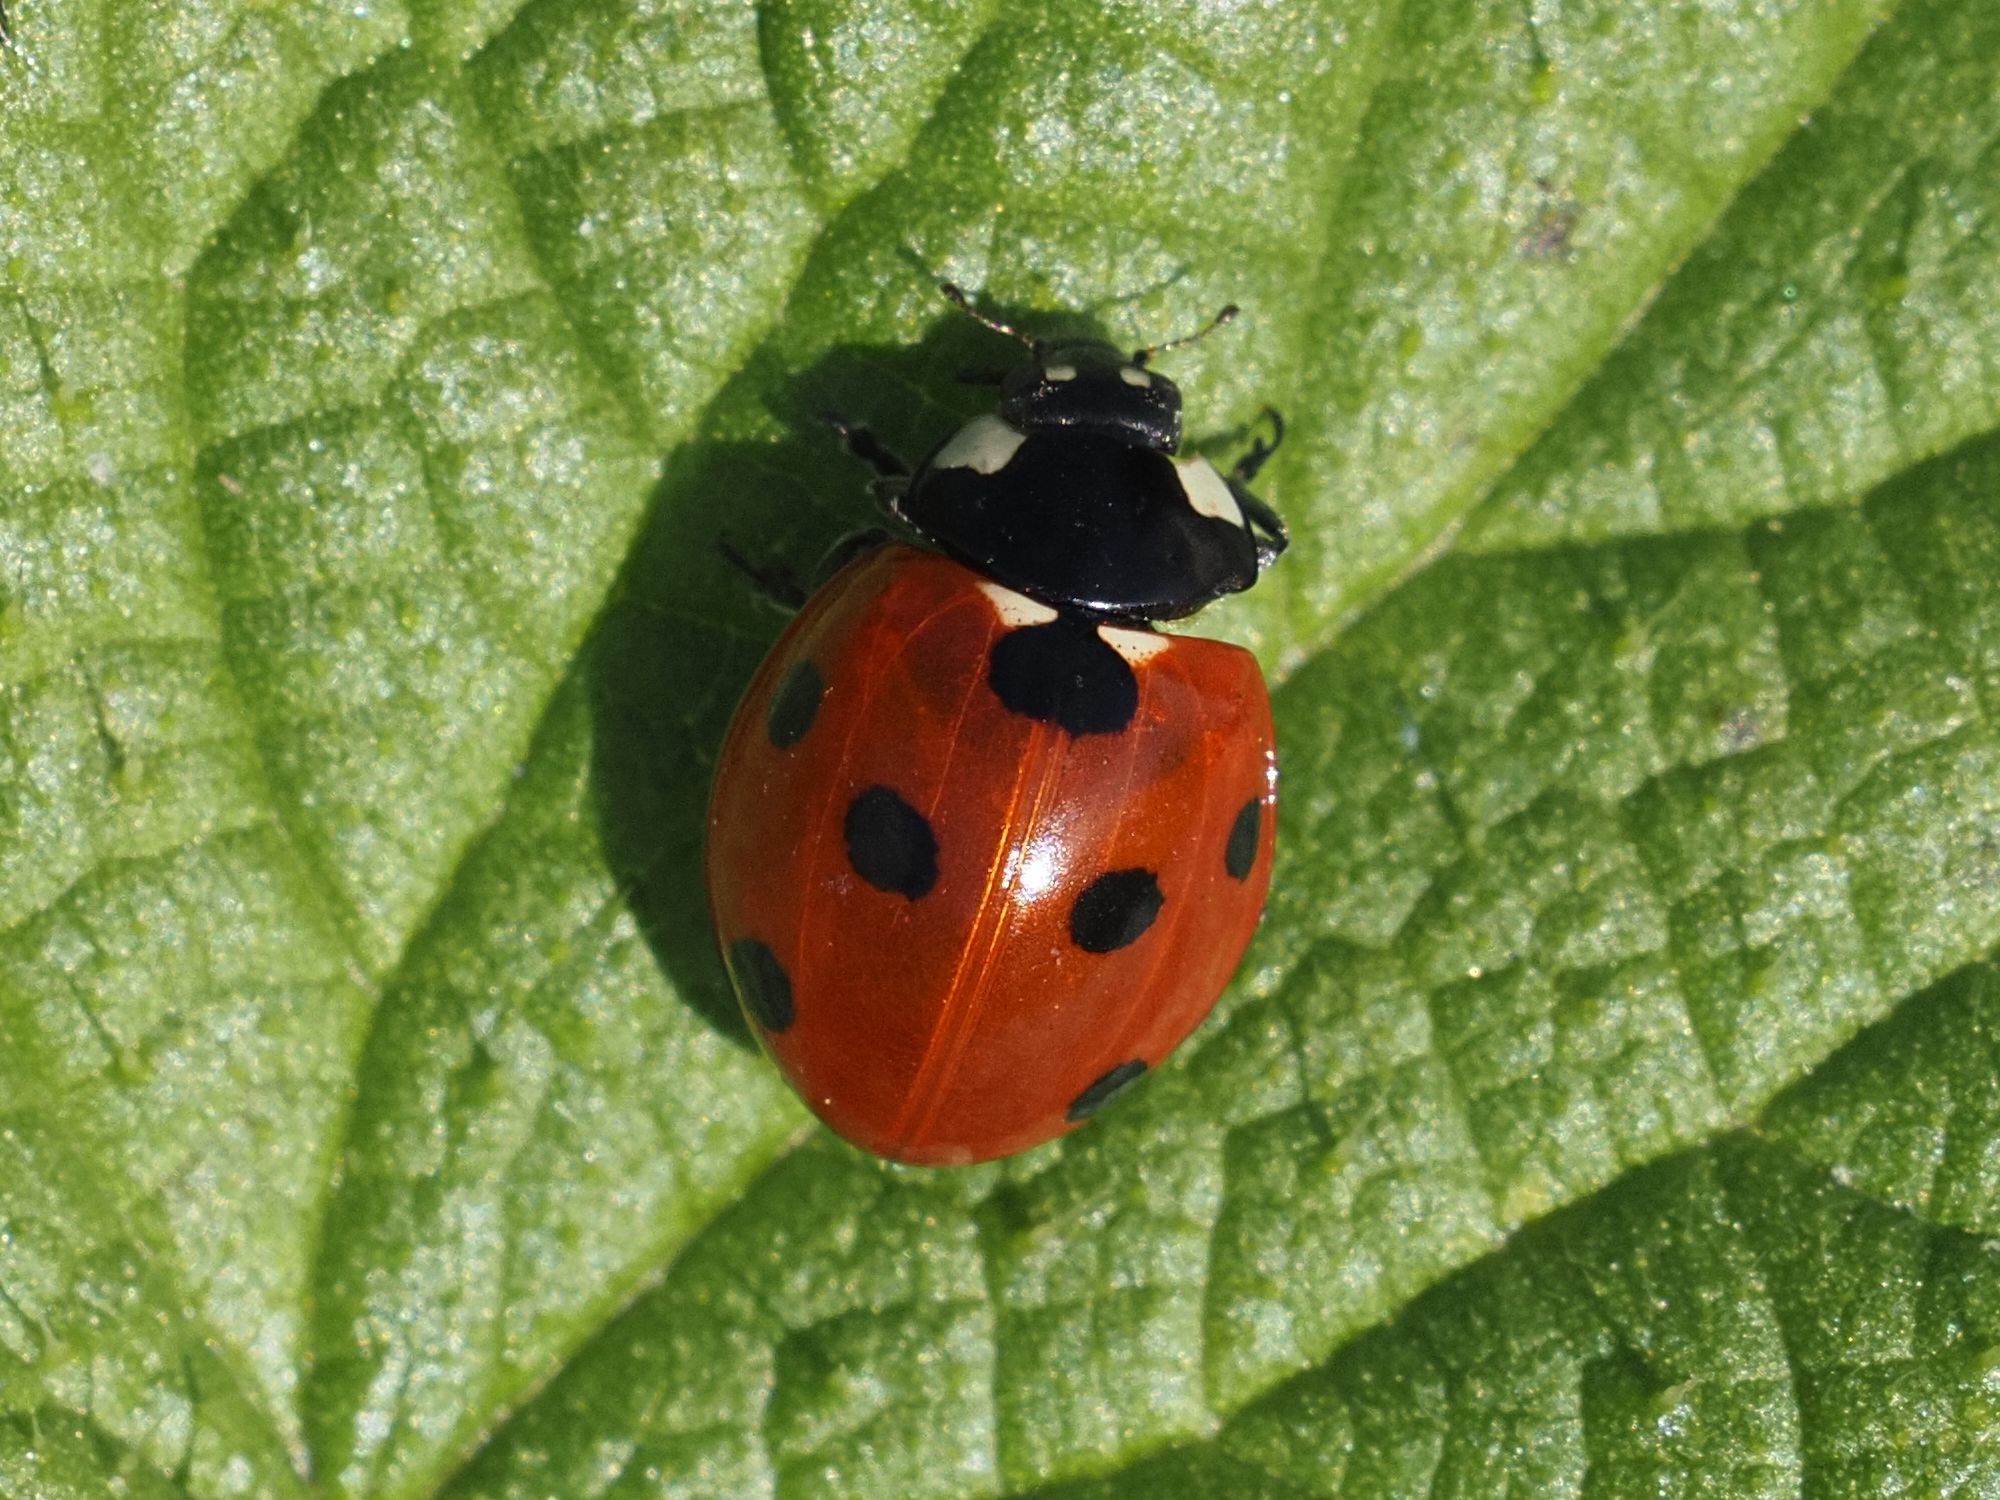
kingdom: Animalia
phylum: Arthropoda
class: Insecta
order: Coleoptera
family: Coccinellidae
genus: Coccinella
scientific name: Coccinella septempunctata
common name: Sevenspotted lady beetle
